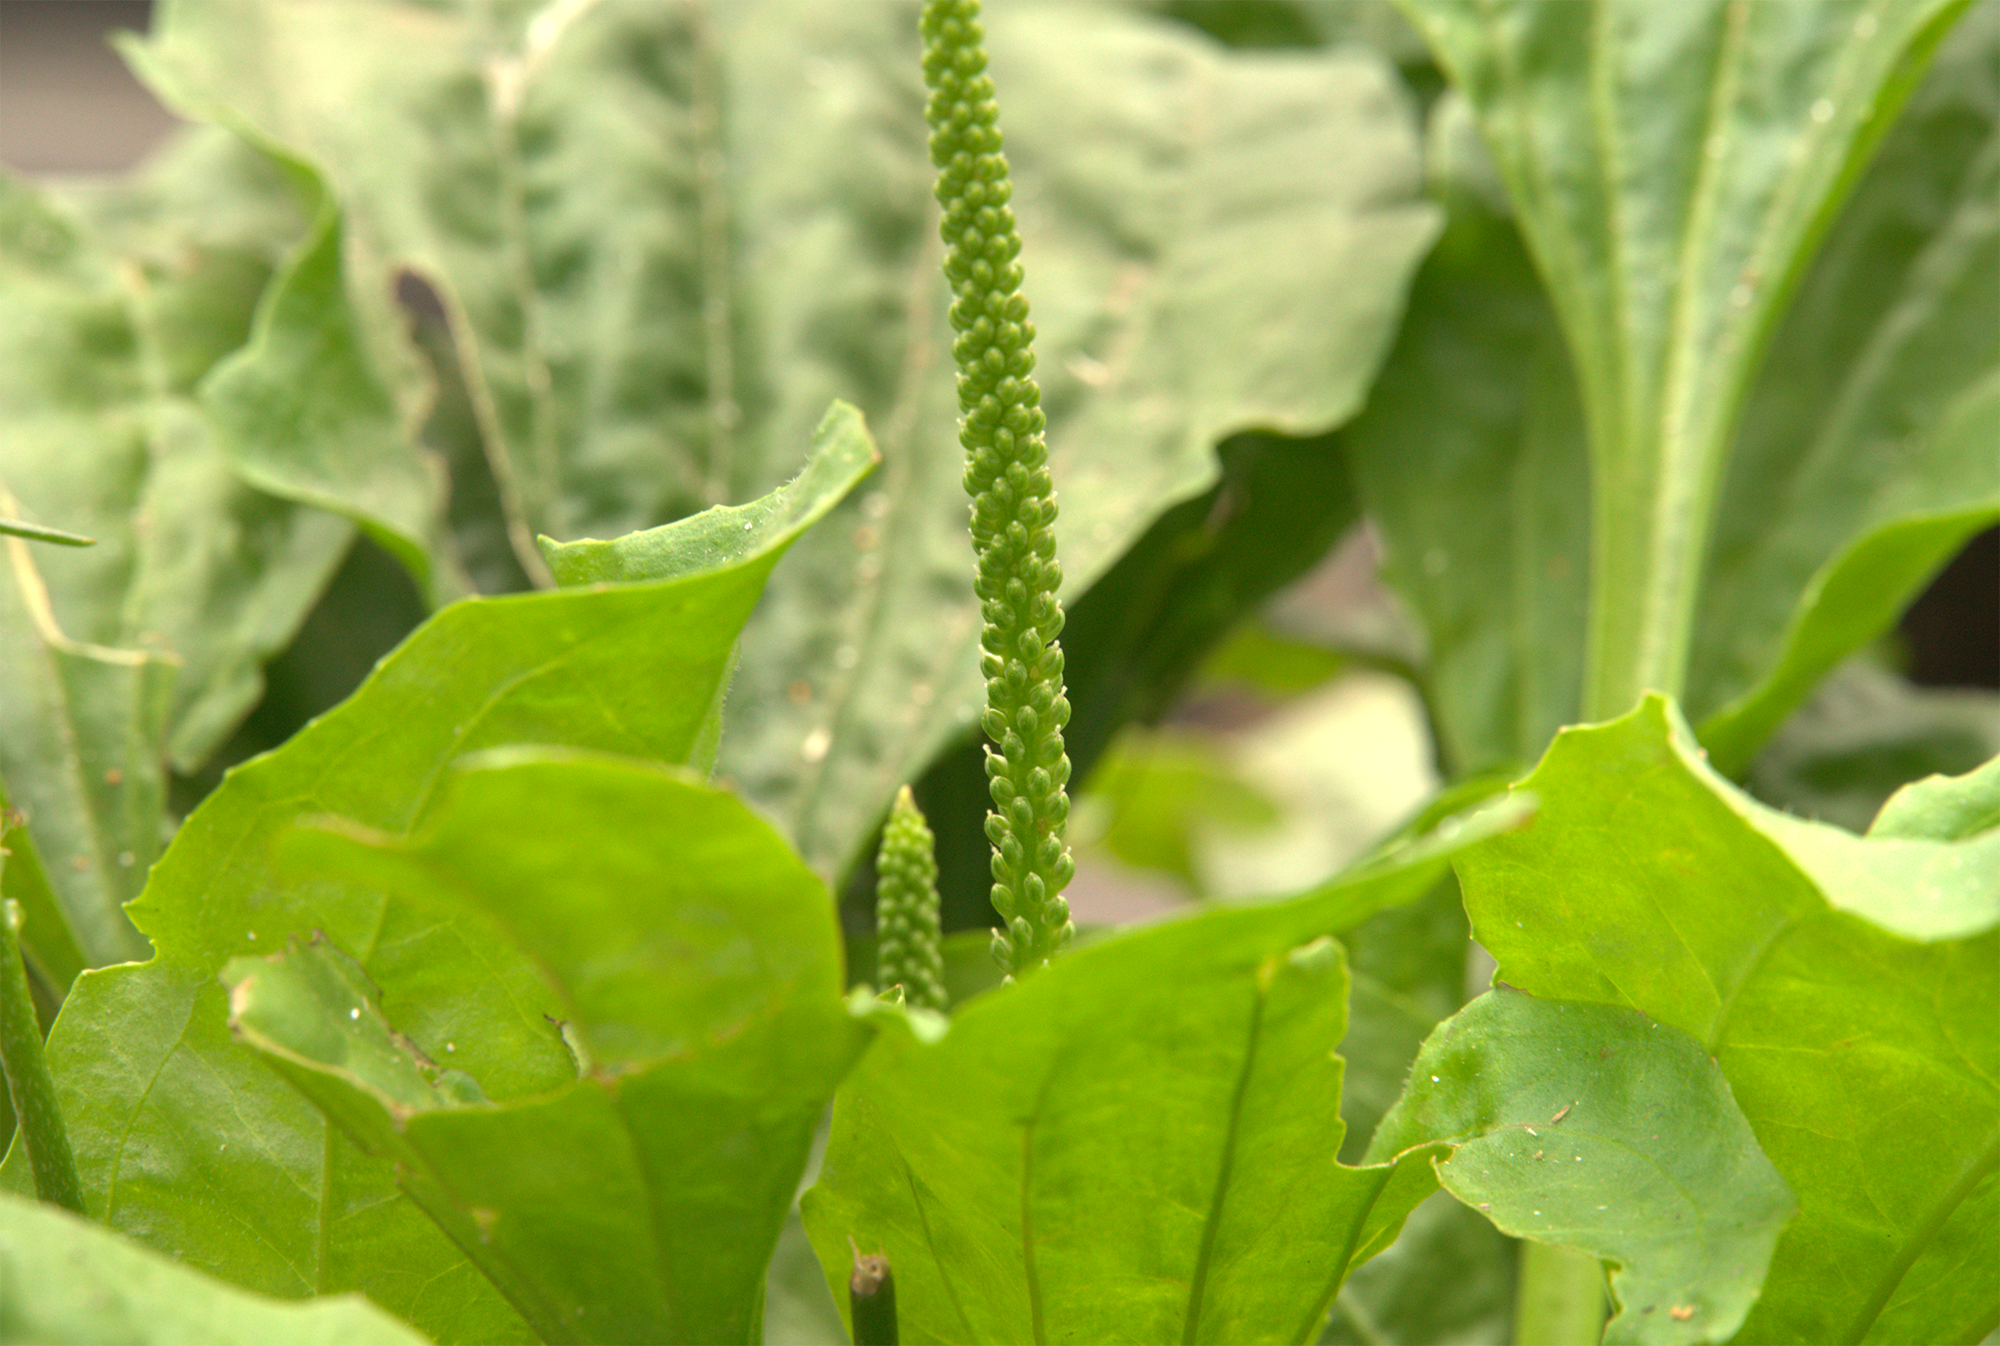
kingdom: Plantae
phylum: Tracheophyta
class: Magnoliopsida
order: Lamiales
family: Plantaginaceae
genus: Plantago
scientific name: Plantago major
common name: Common plantain
